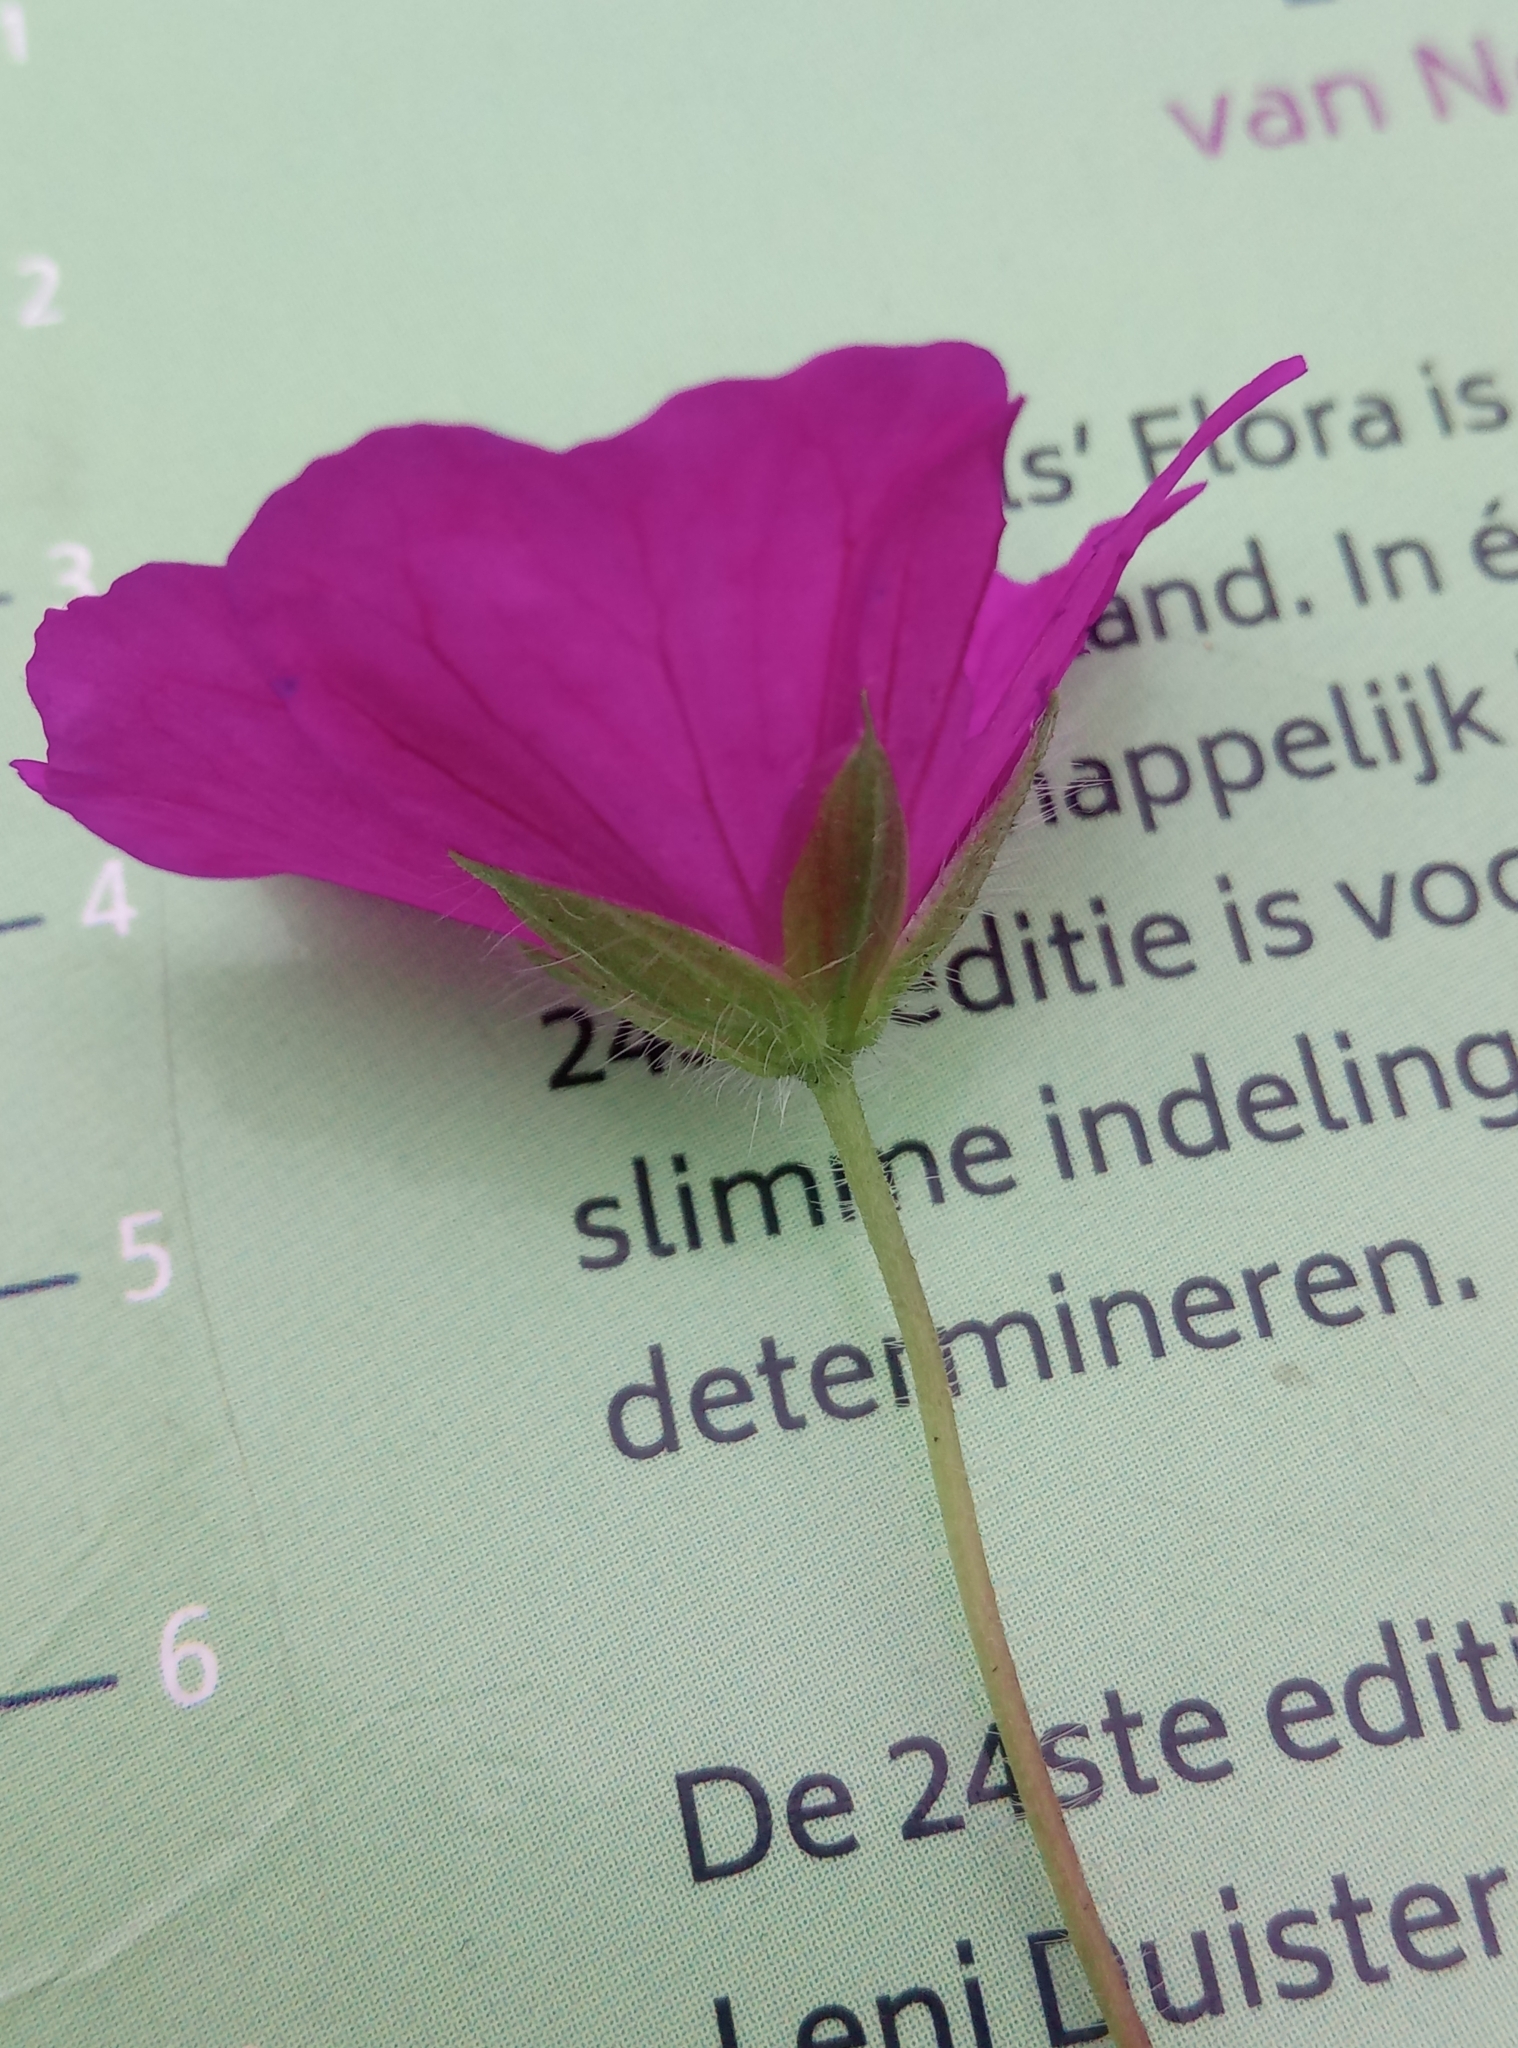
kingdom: Plantae
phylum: Tracheophyta
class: Magnoliopsida
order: Geraniales
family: Geraniaceae
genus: Geranium
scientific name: Geranium sanguineum
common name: Bloody crane's-bill
